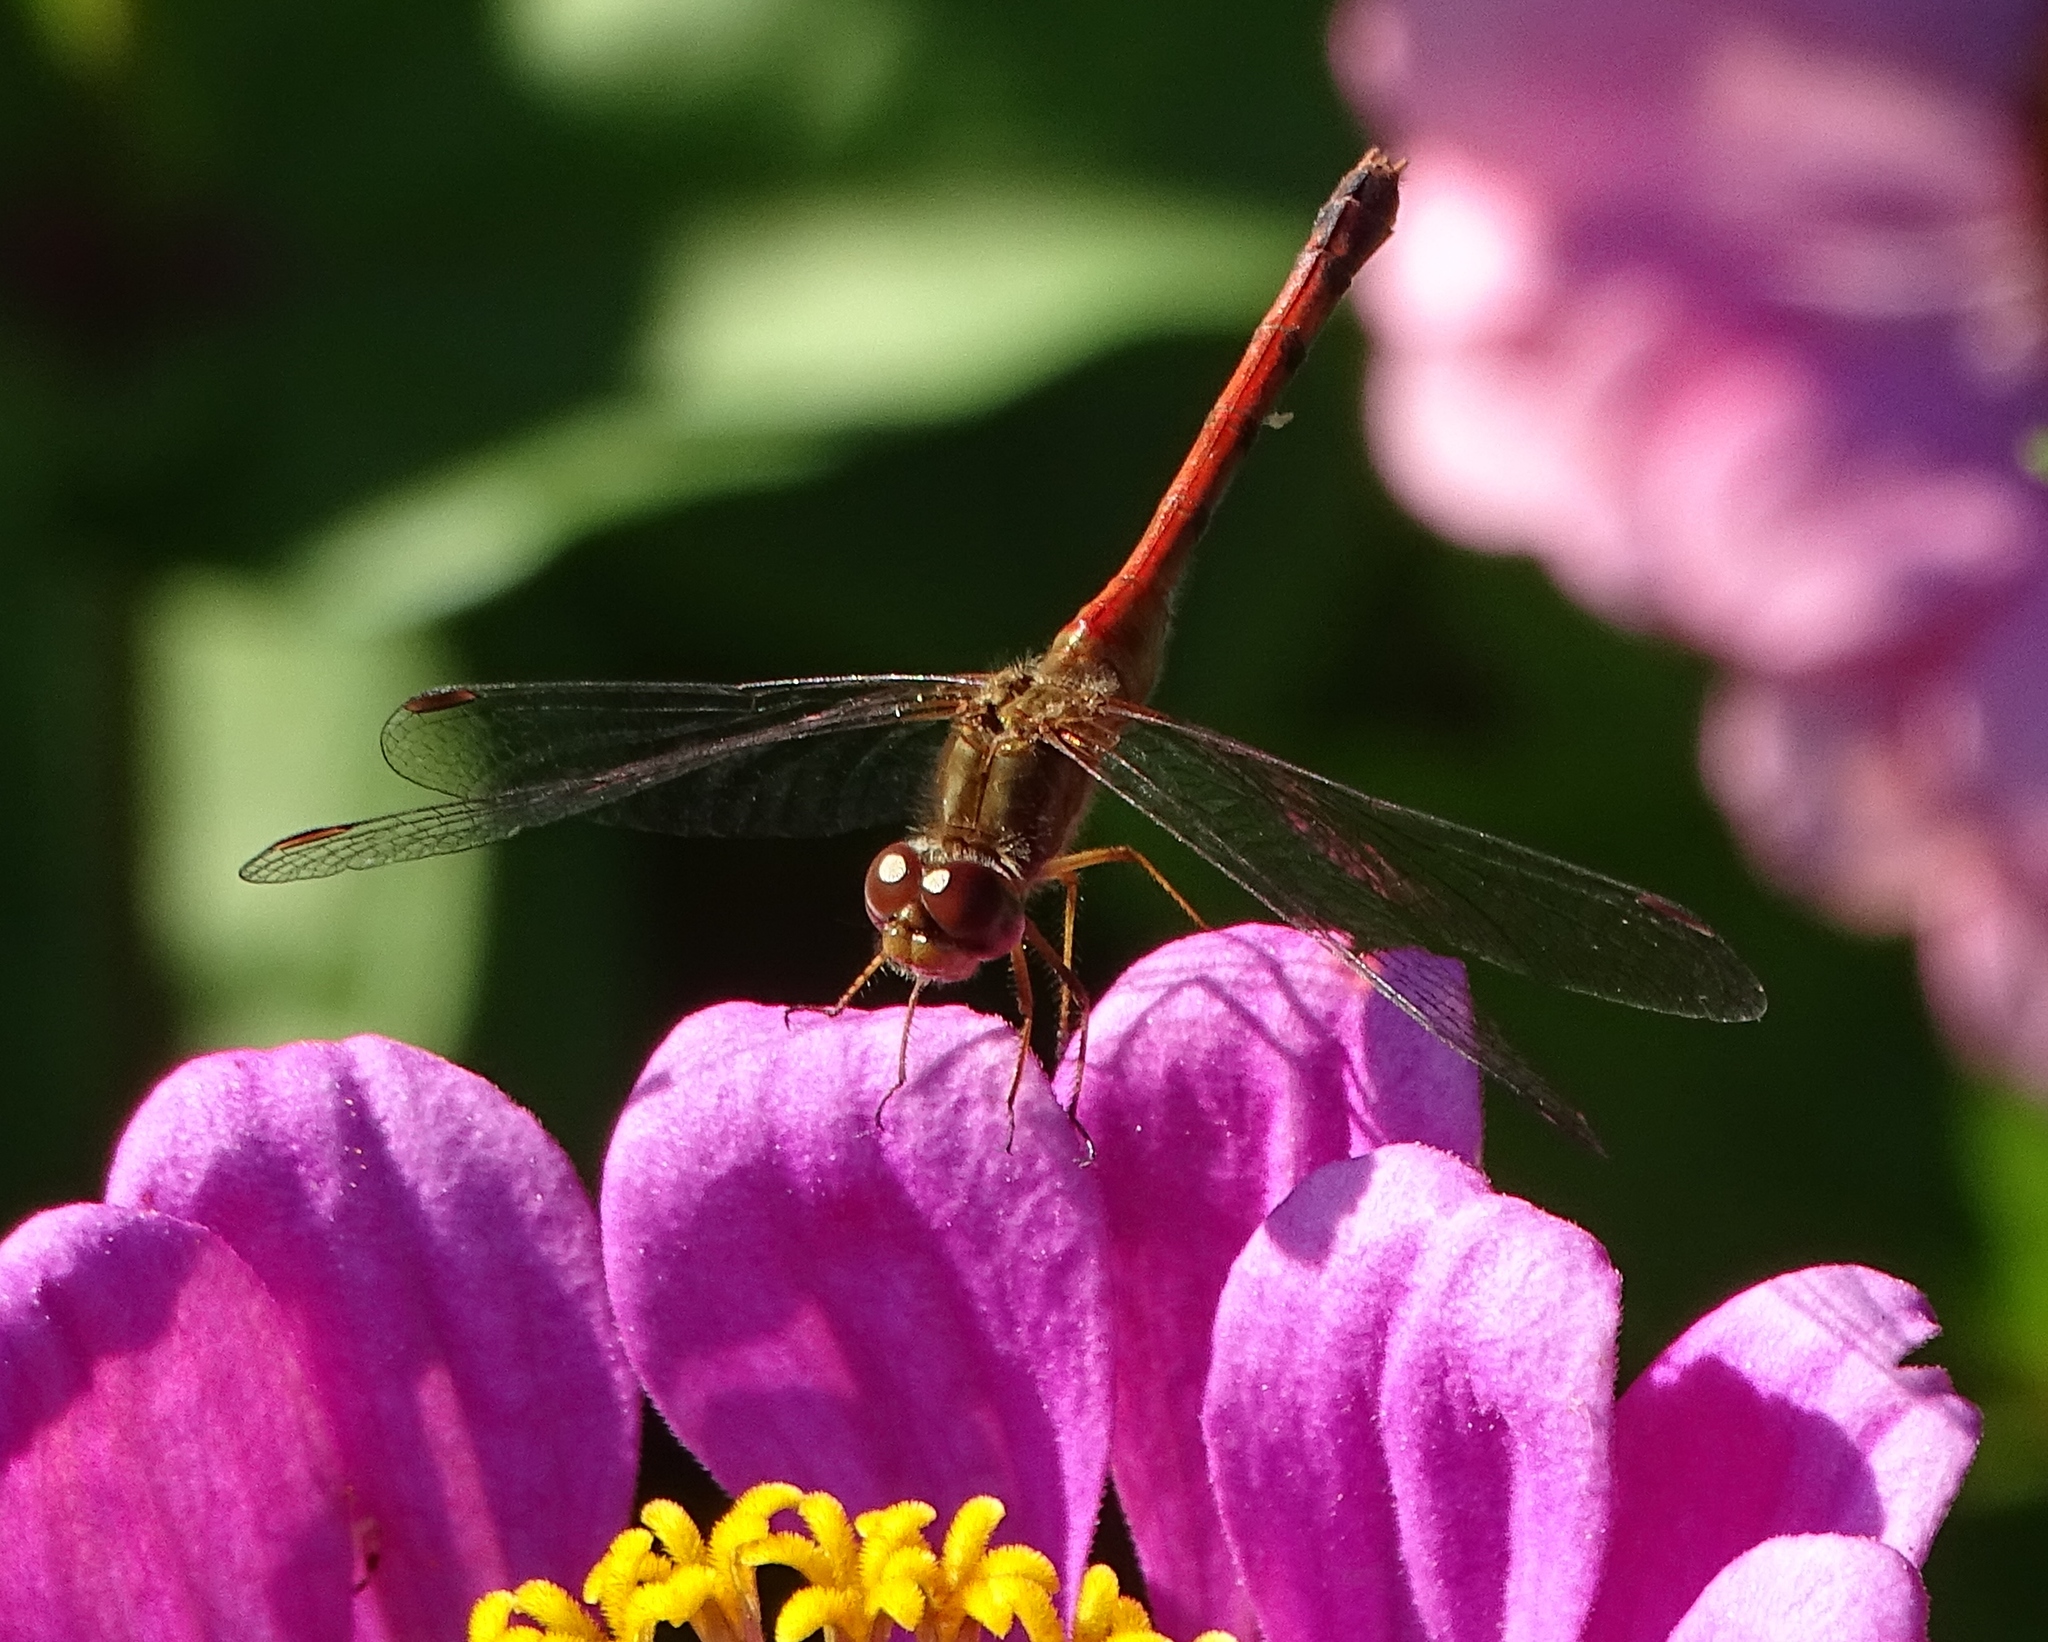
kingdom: Animalia
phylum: Arthropoda
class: Insecta
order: Odonata
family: Libellulidae
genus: Sympetrum
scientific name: Sympetrum vicinum
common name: Autumn meadowhawk
